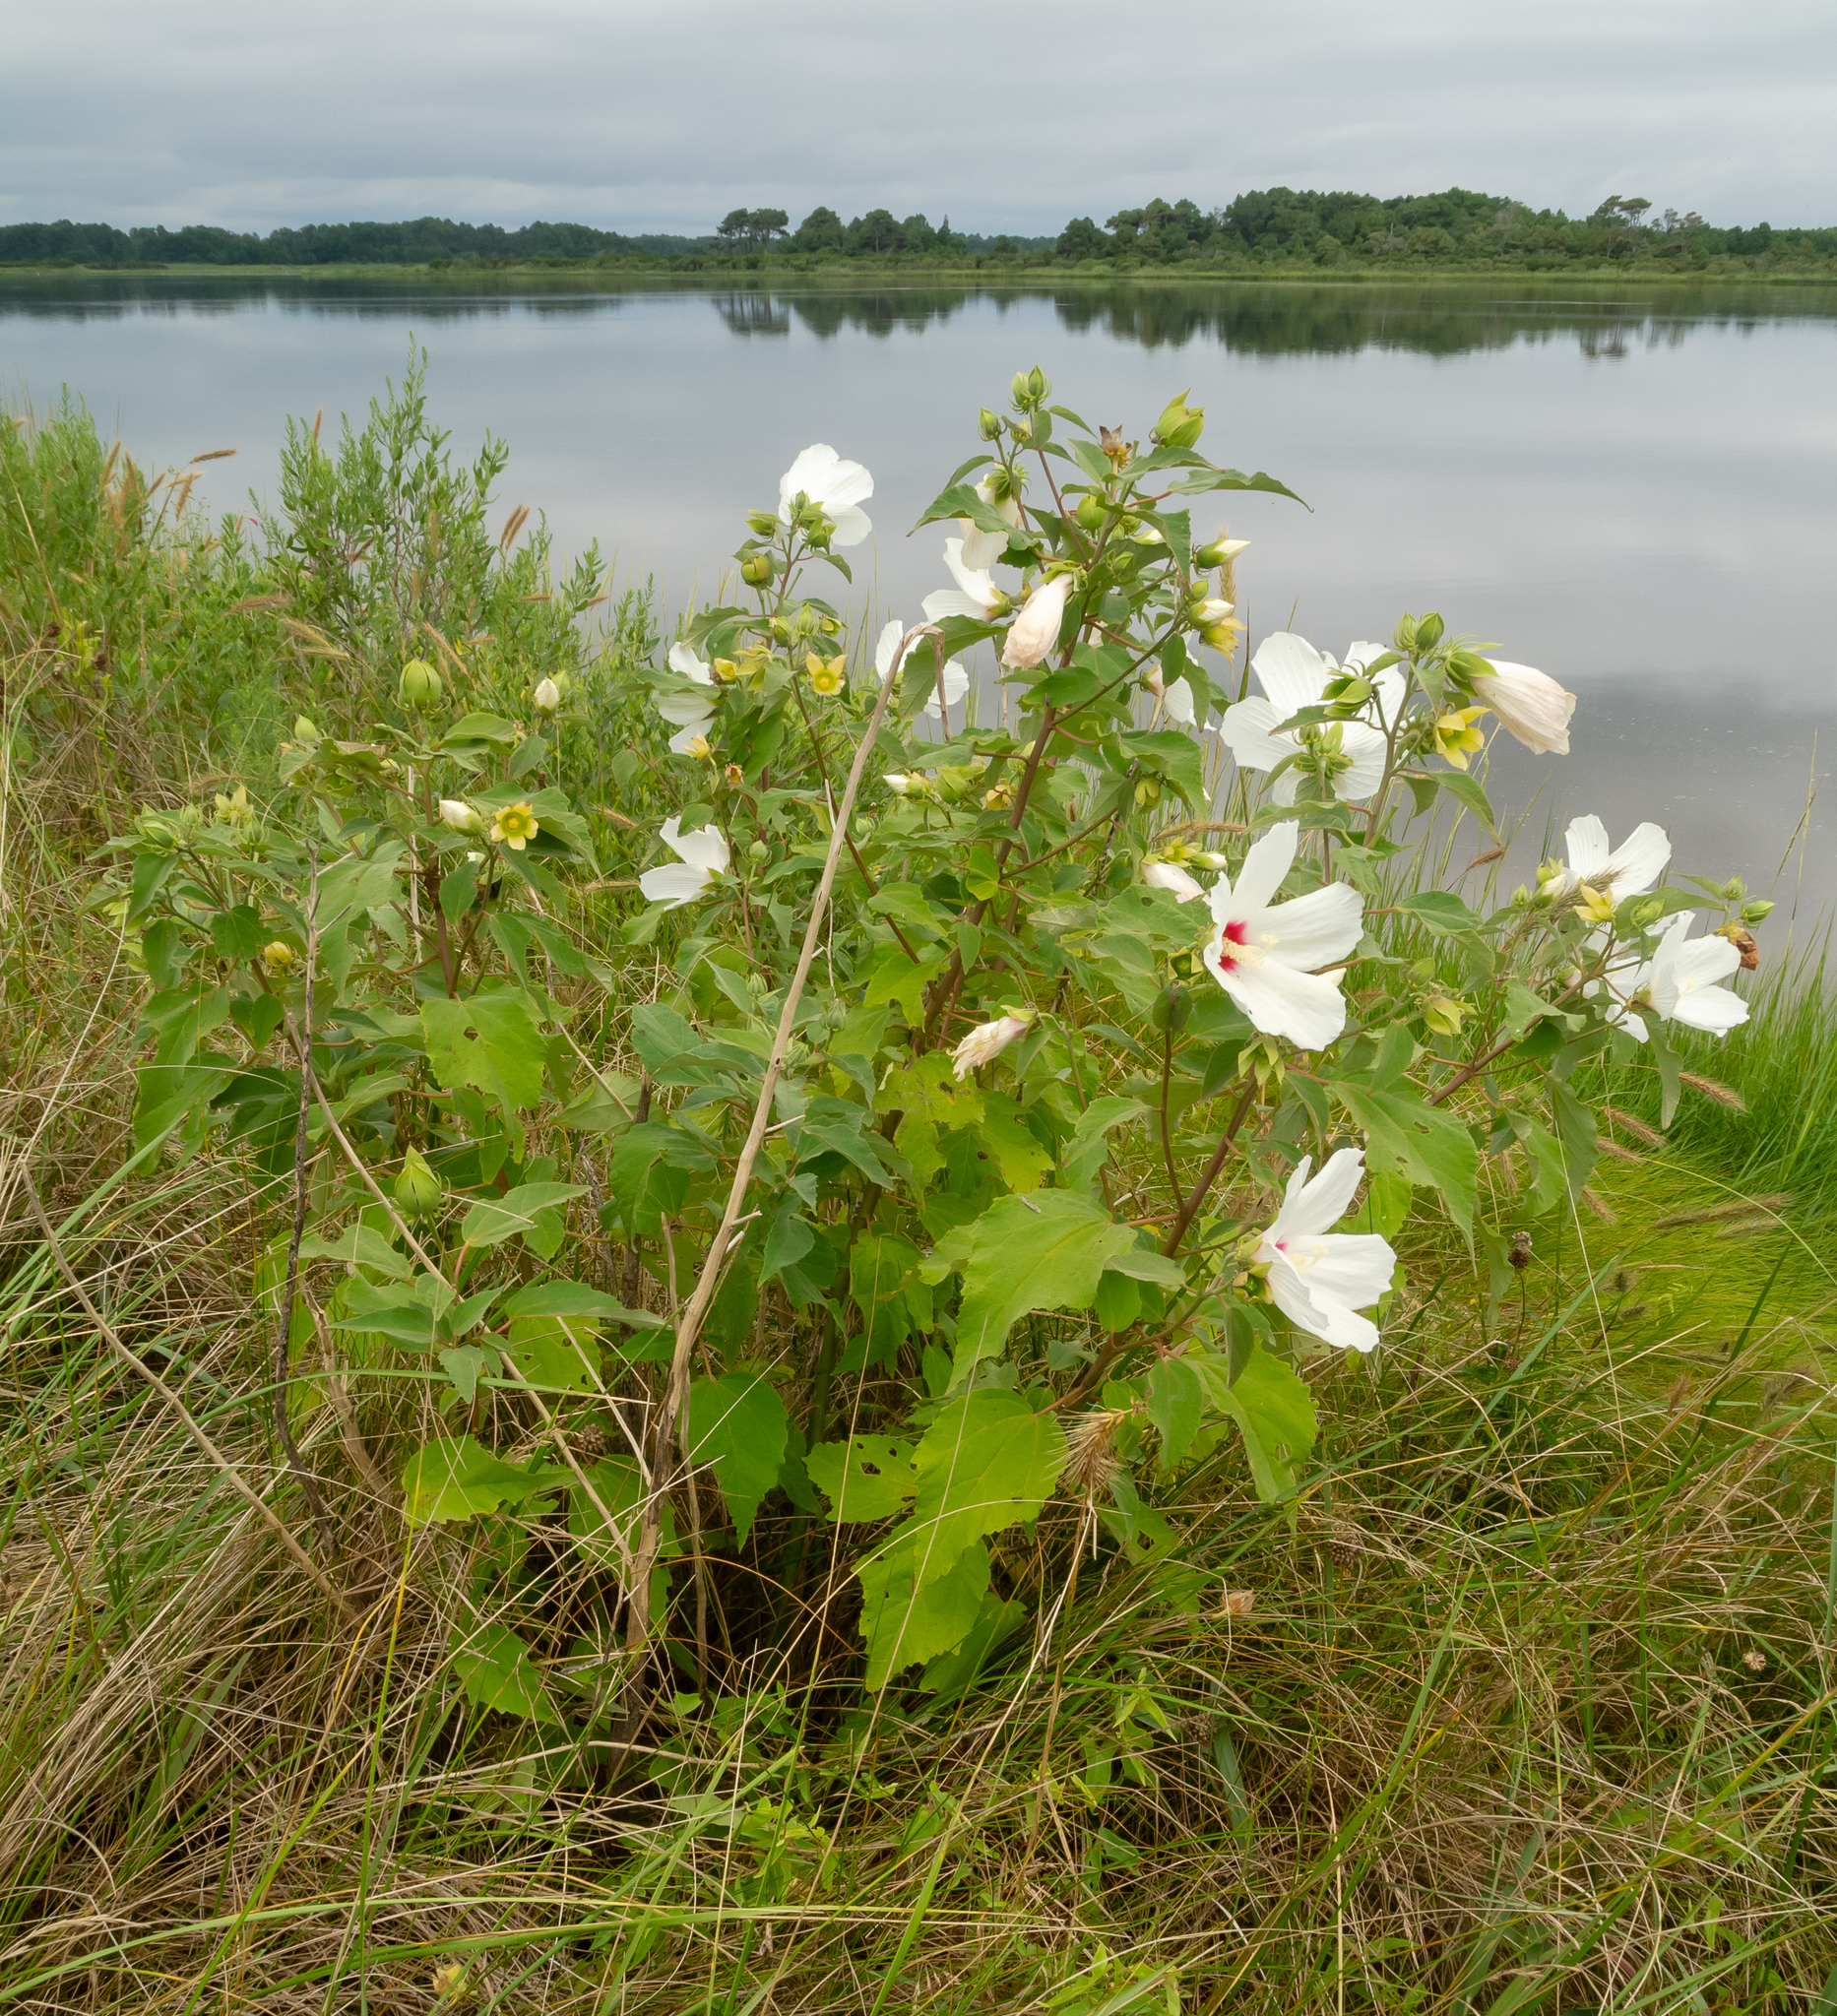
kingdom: Plantae
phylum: Tracheophyta
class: Magnoliopsida
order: Malvales
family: Malvaceae
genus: Hibiscus
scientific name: Hibiscus moscheutos
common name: Common rose-mallow
